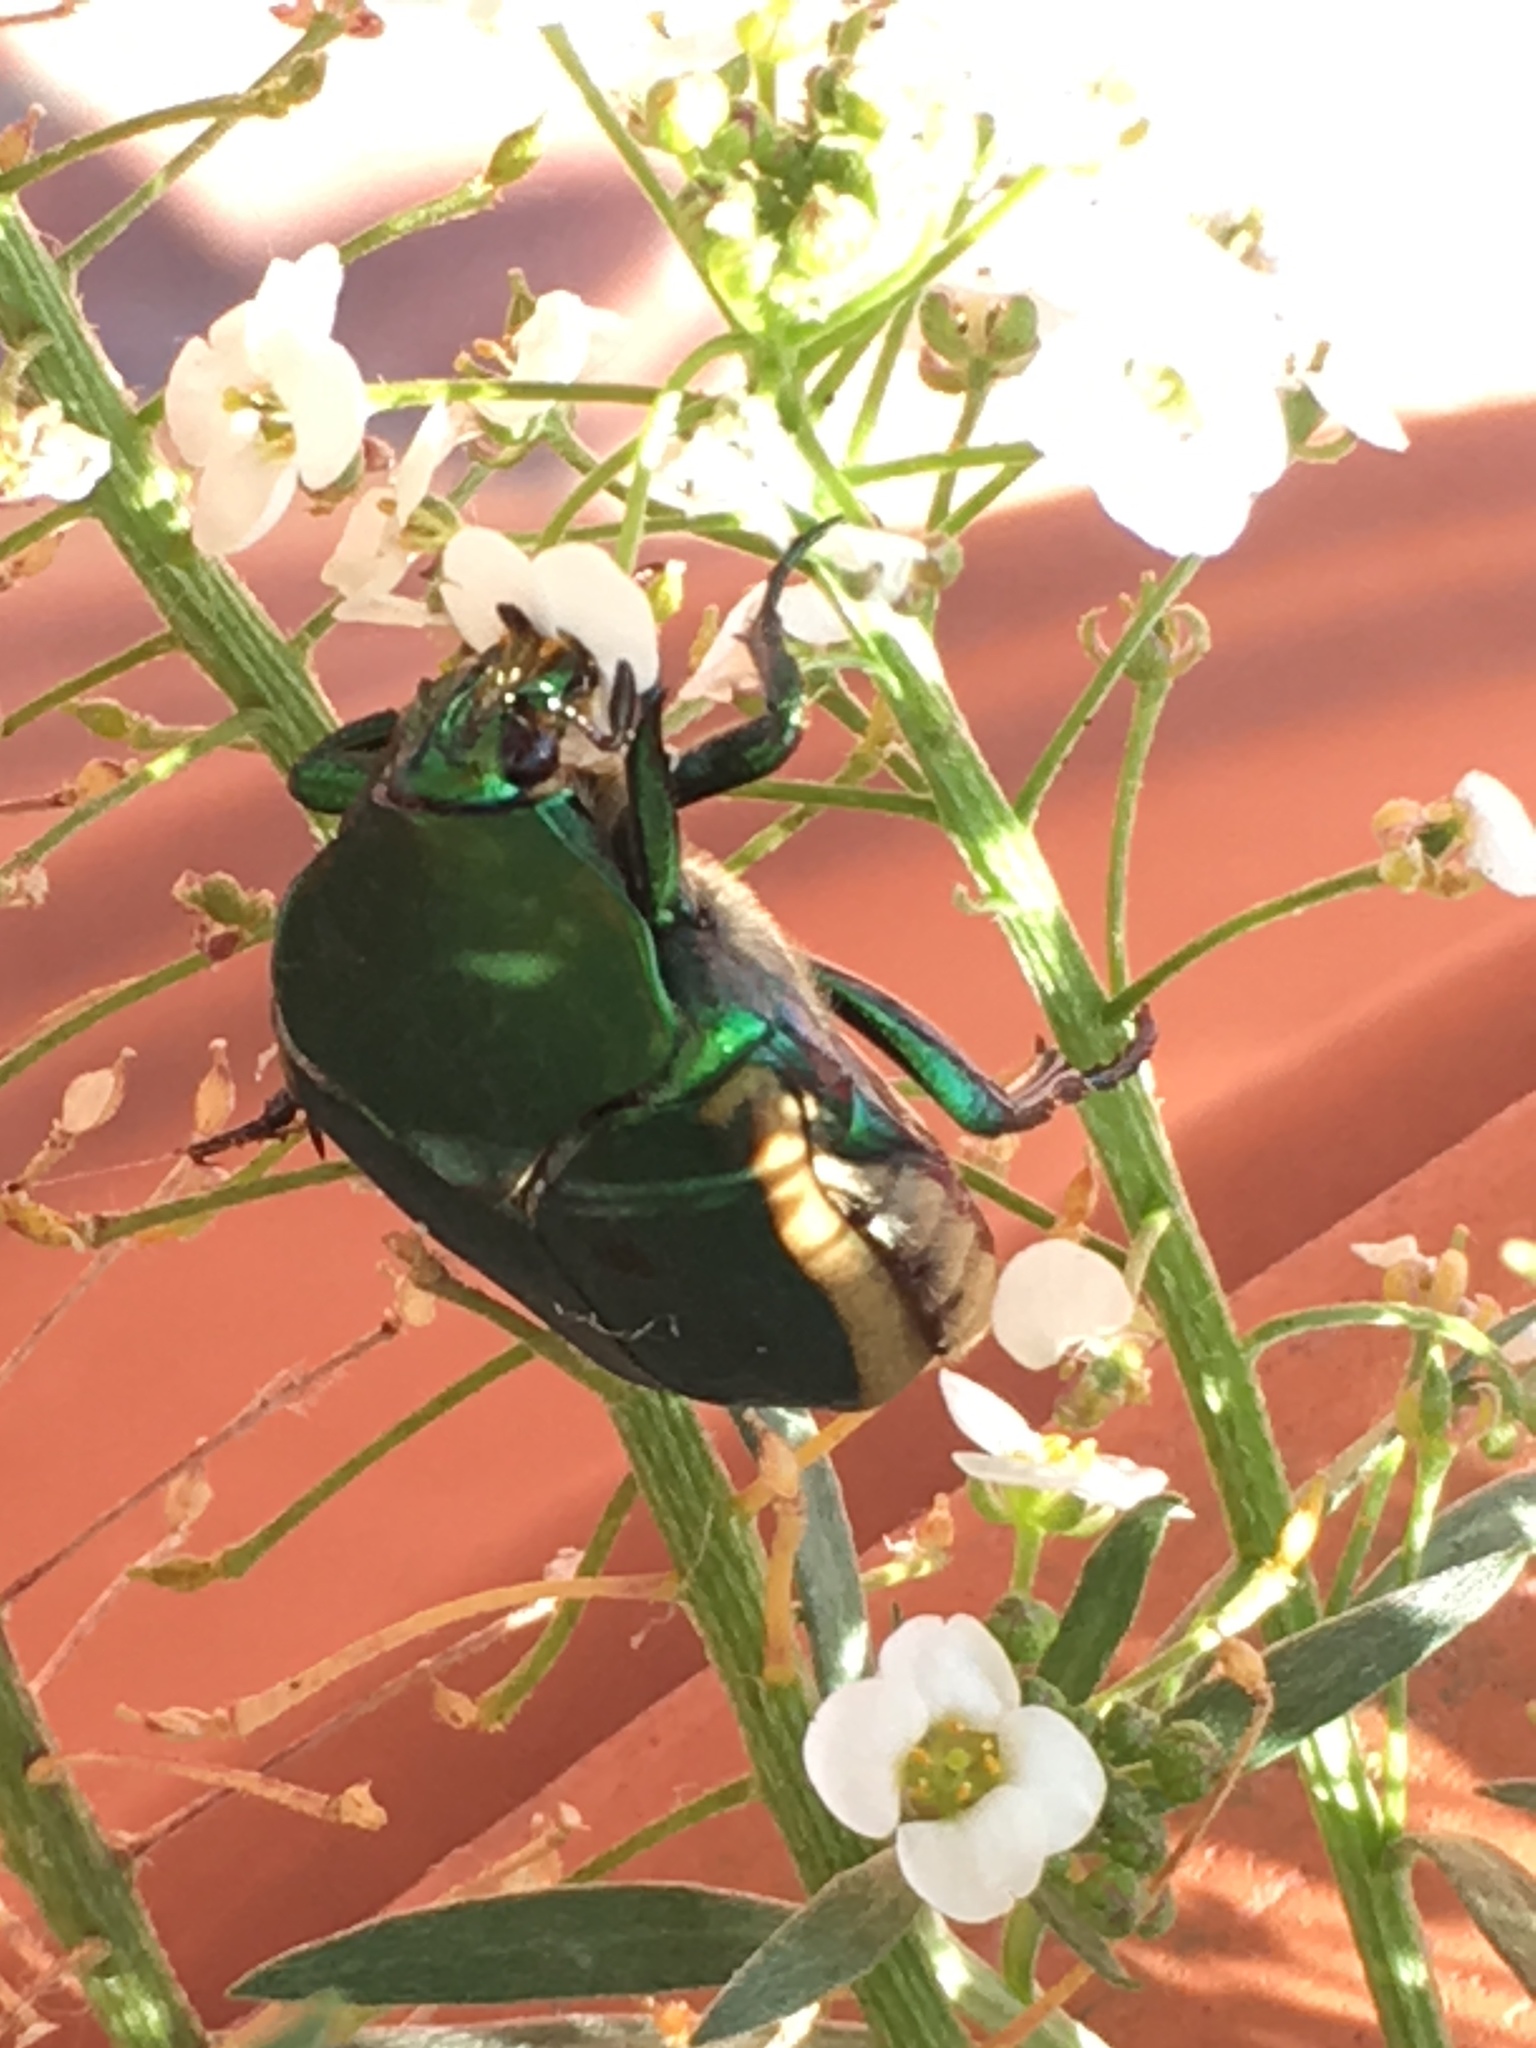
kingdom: Animalia
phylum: Arthropoda
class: Insecta
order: Coleoptera
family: Scarabaeidae
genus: Cotinis
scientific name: Cotinis mutabilis
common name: Figeater beetle
